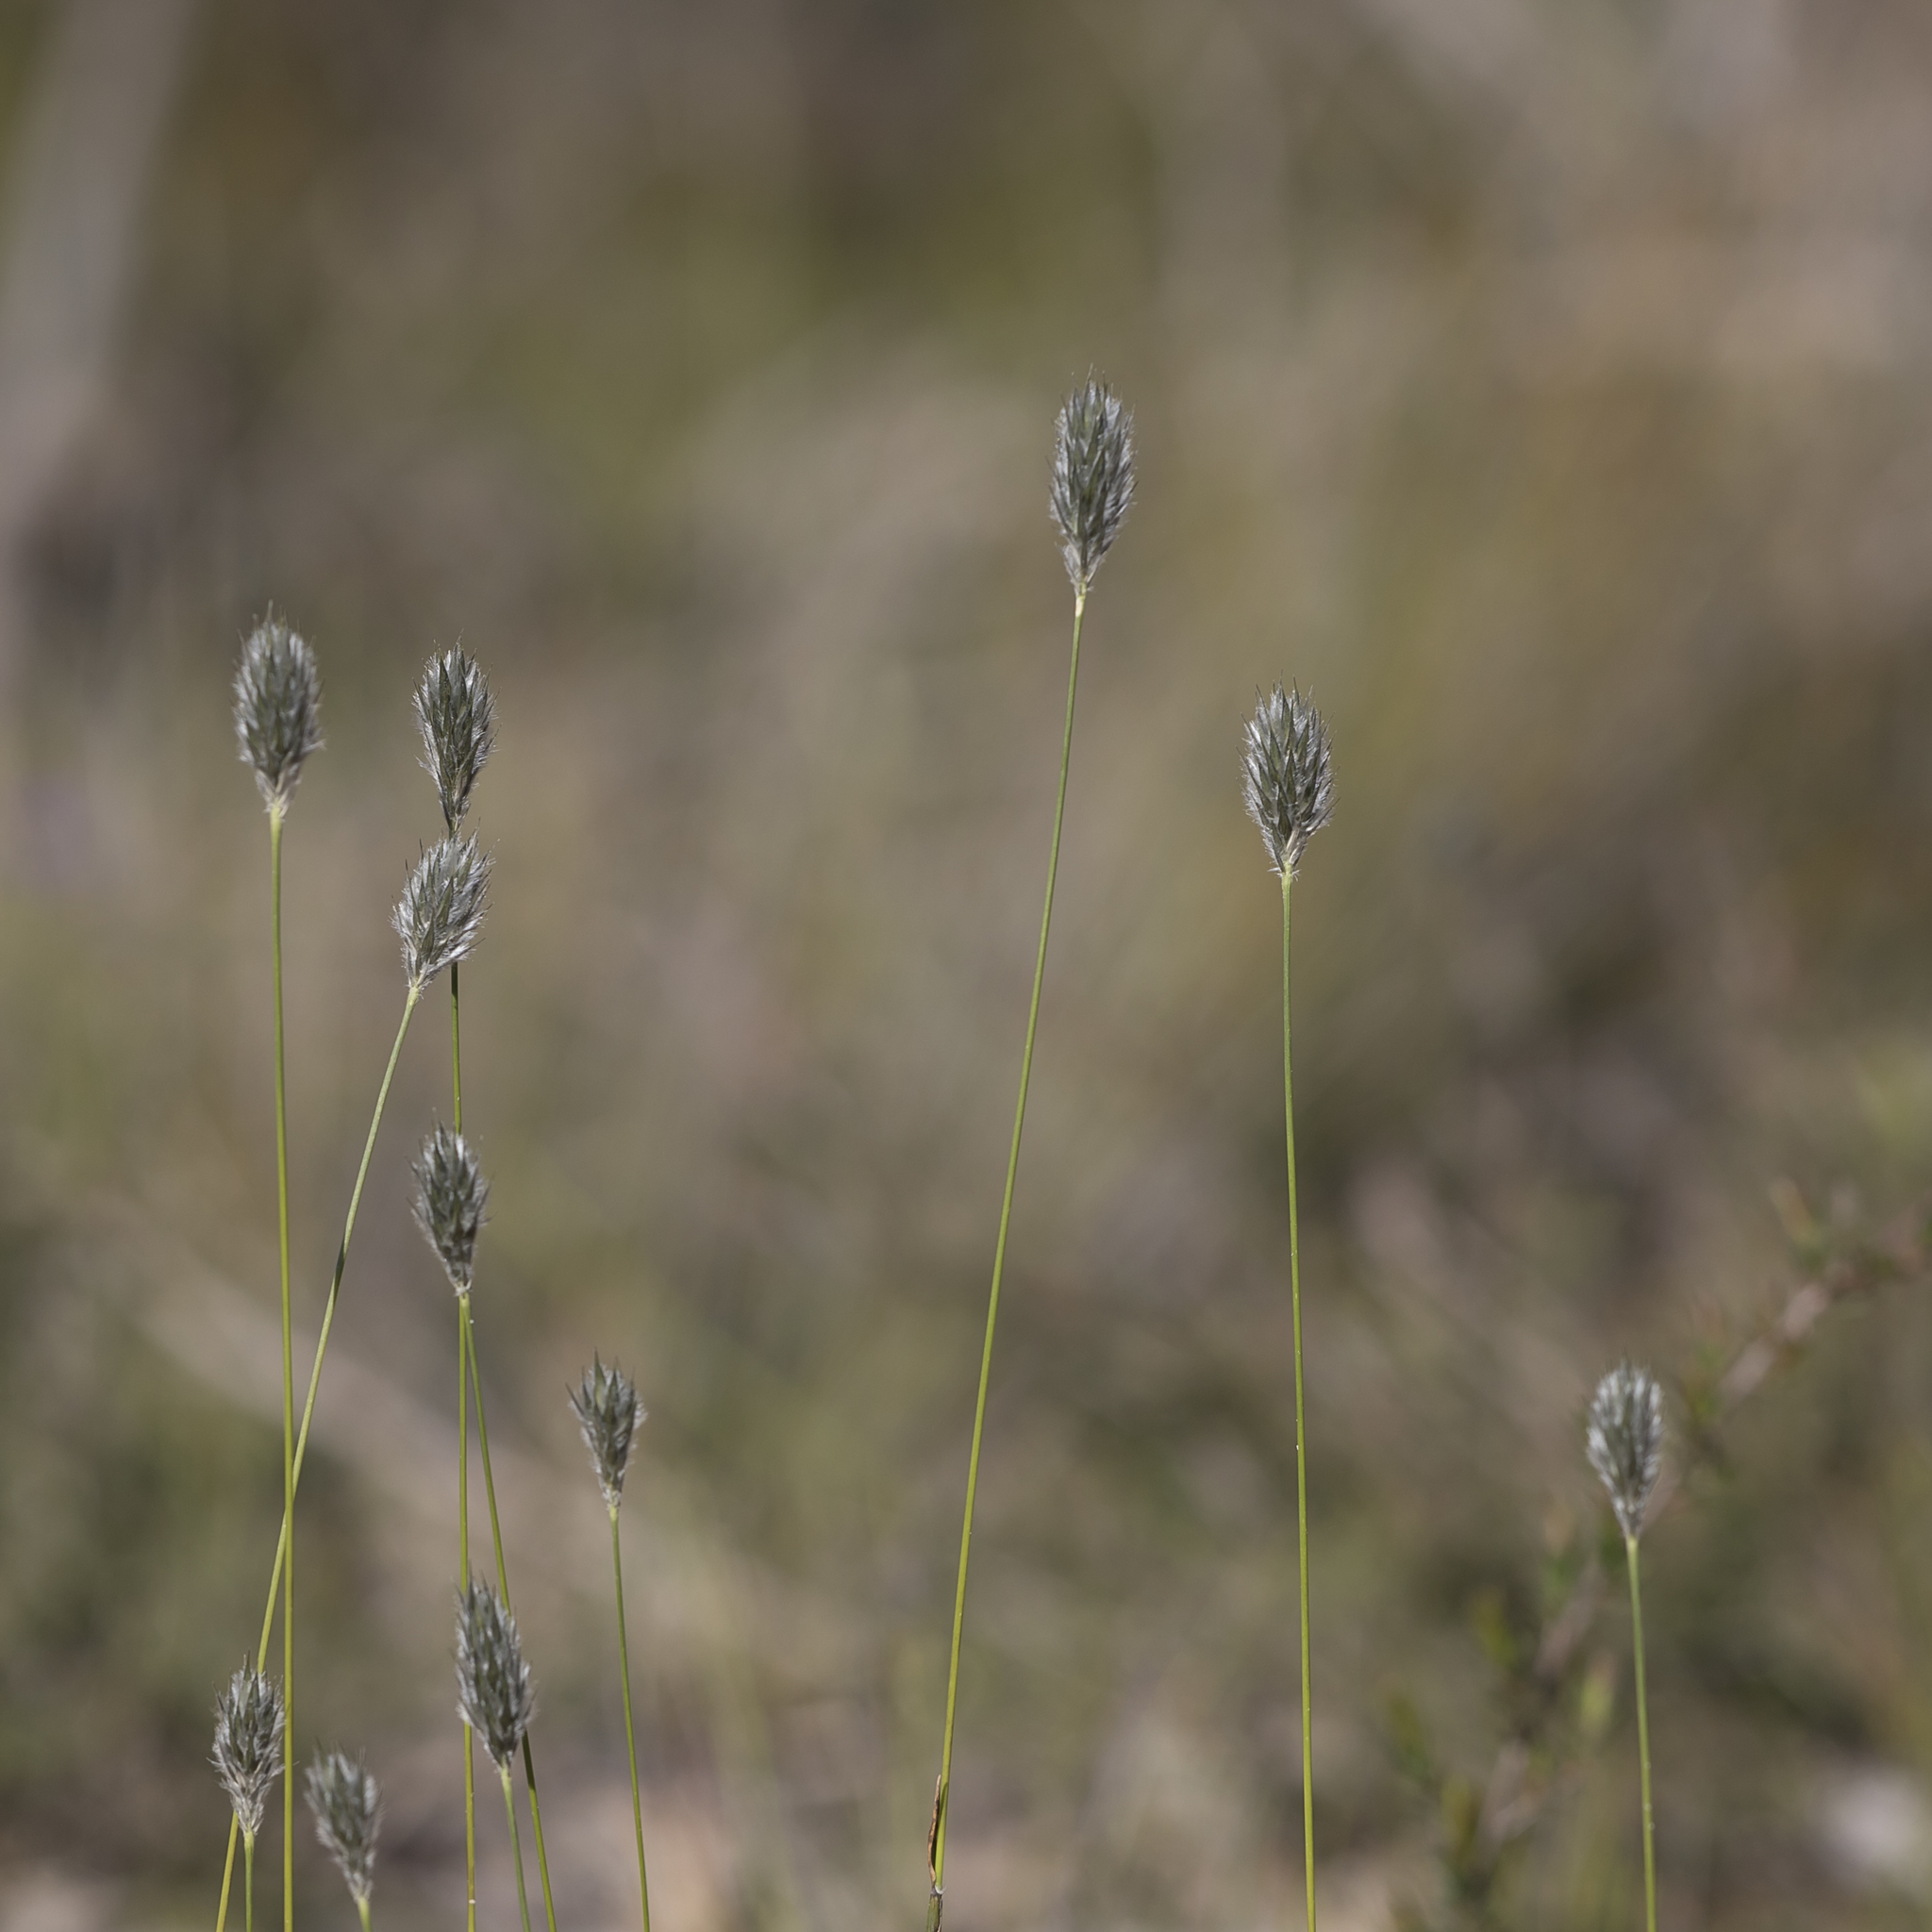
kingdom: Plantae
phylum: Tracheophyta
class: Liliopsida
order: Poales
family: Poaceae
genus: Neurachne
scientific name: Neurachne alopecuroidea
